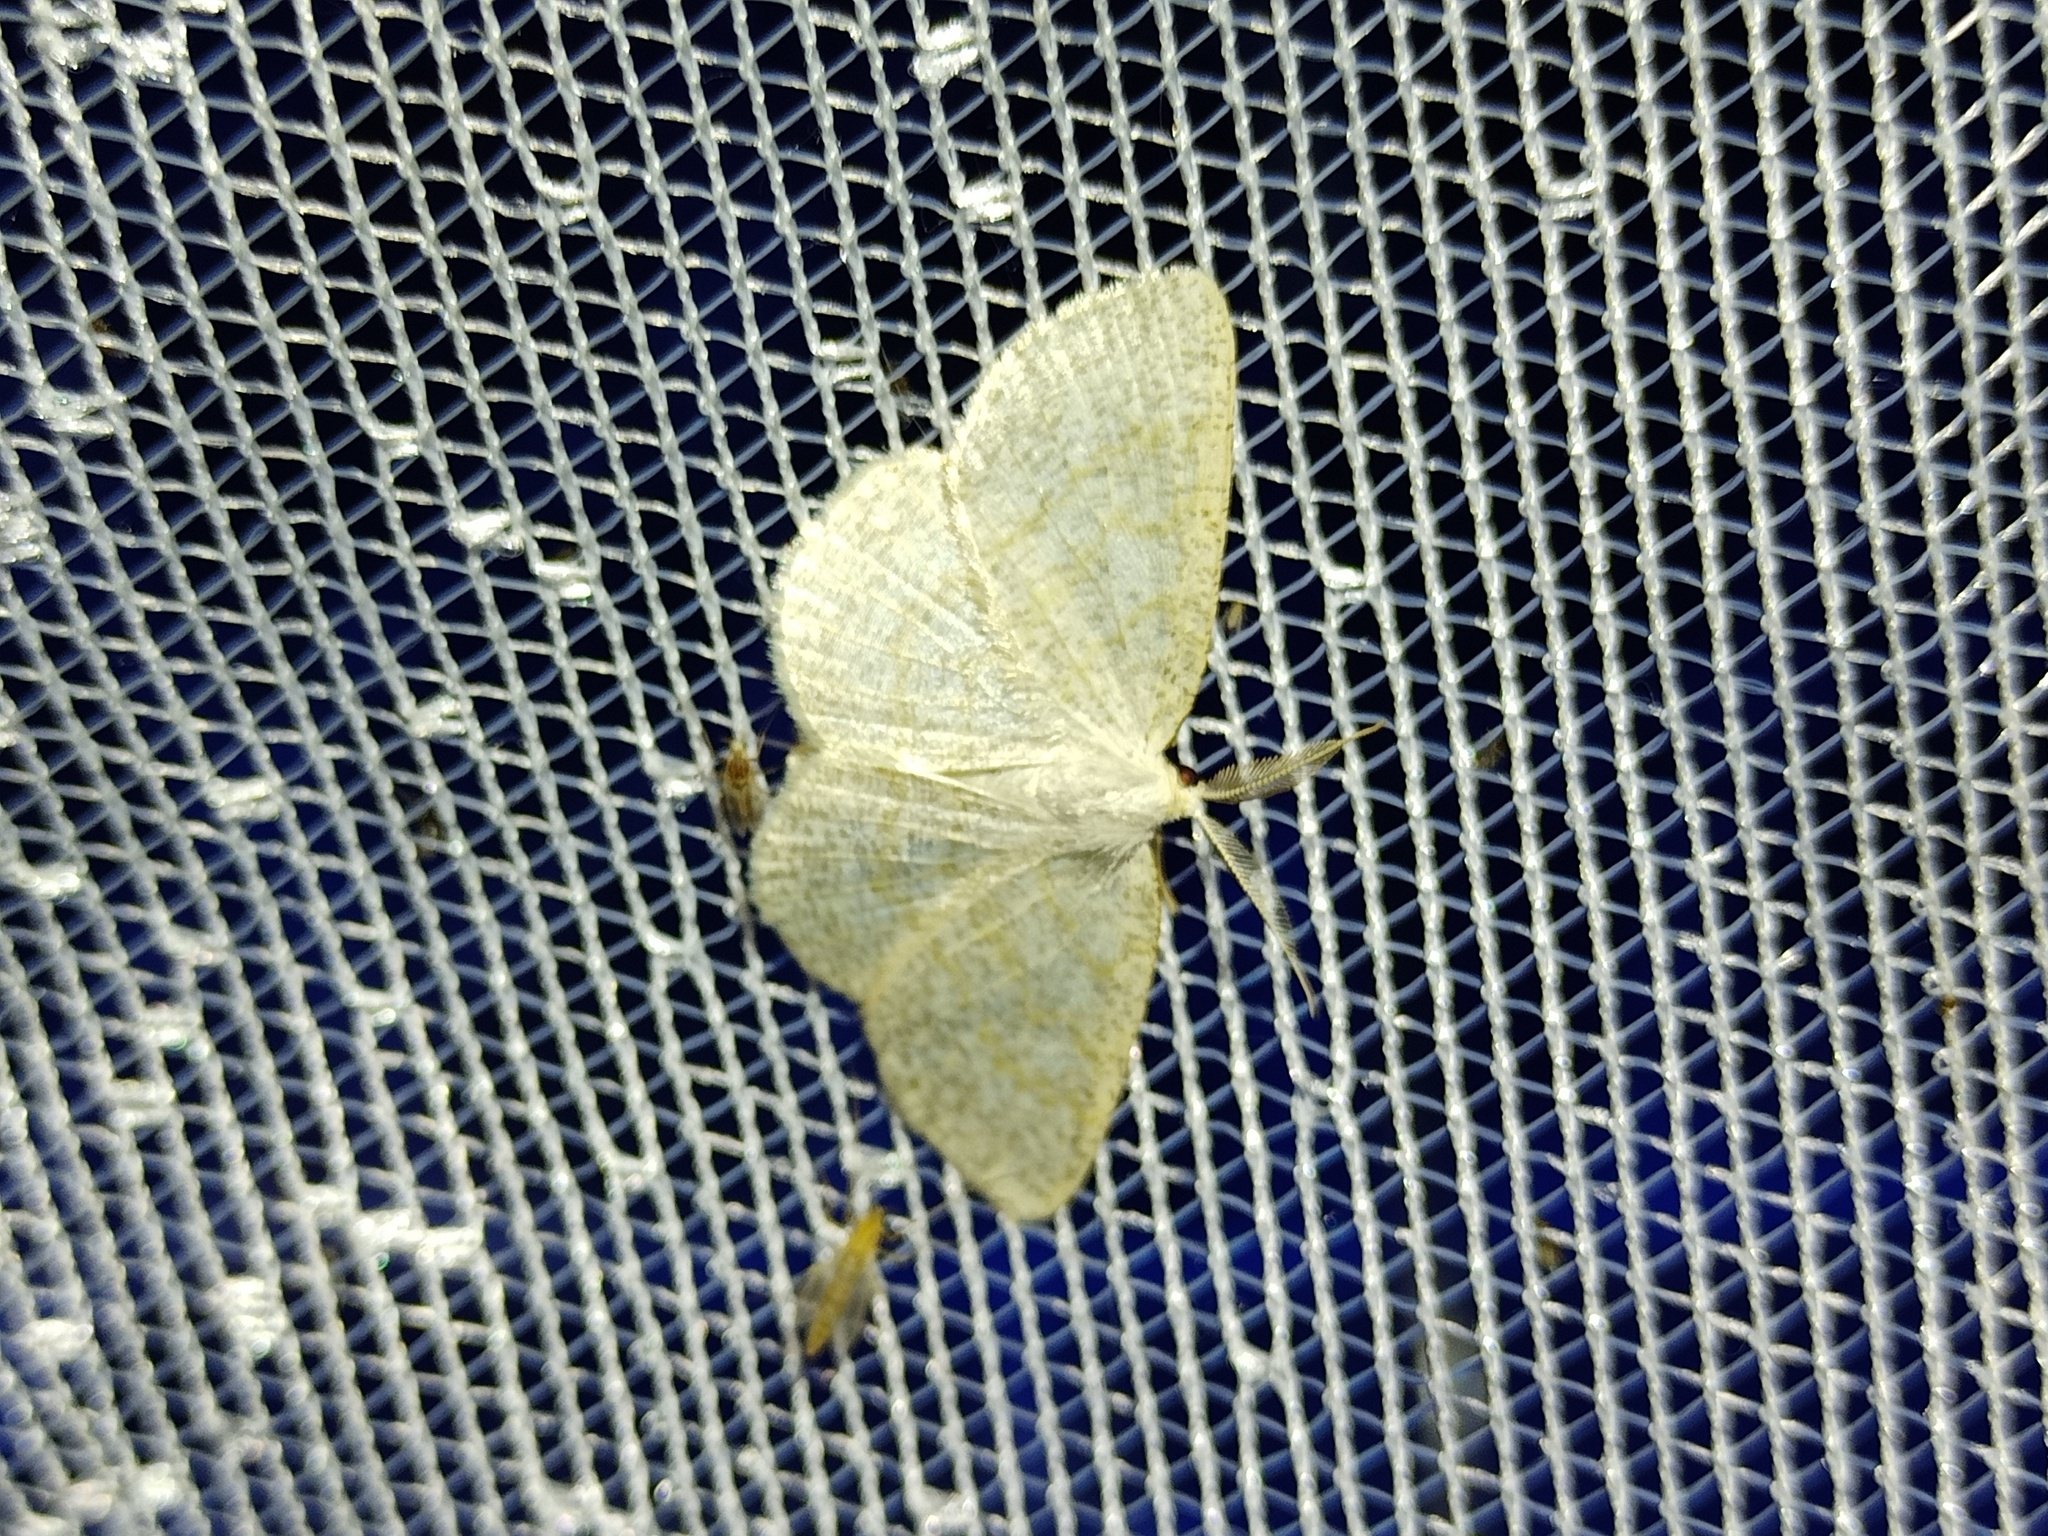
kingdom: Animalia
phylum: Arthropoda
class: Insecta
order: Lepidoptera
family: Geometridae
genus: Cabera
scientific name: Cabera exanthemata
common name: Common wave
